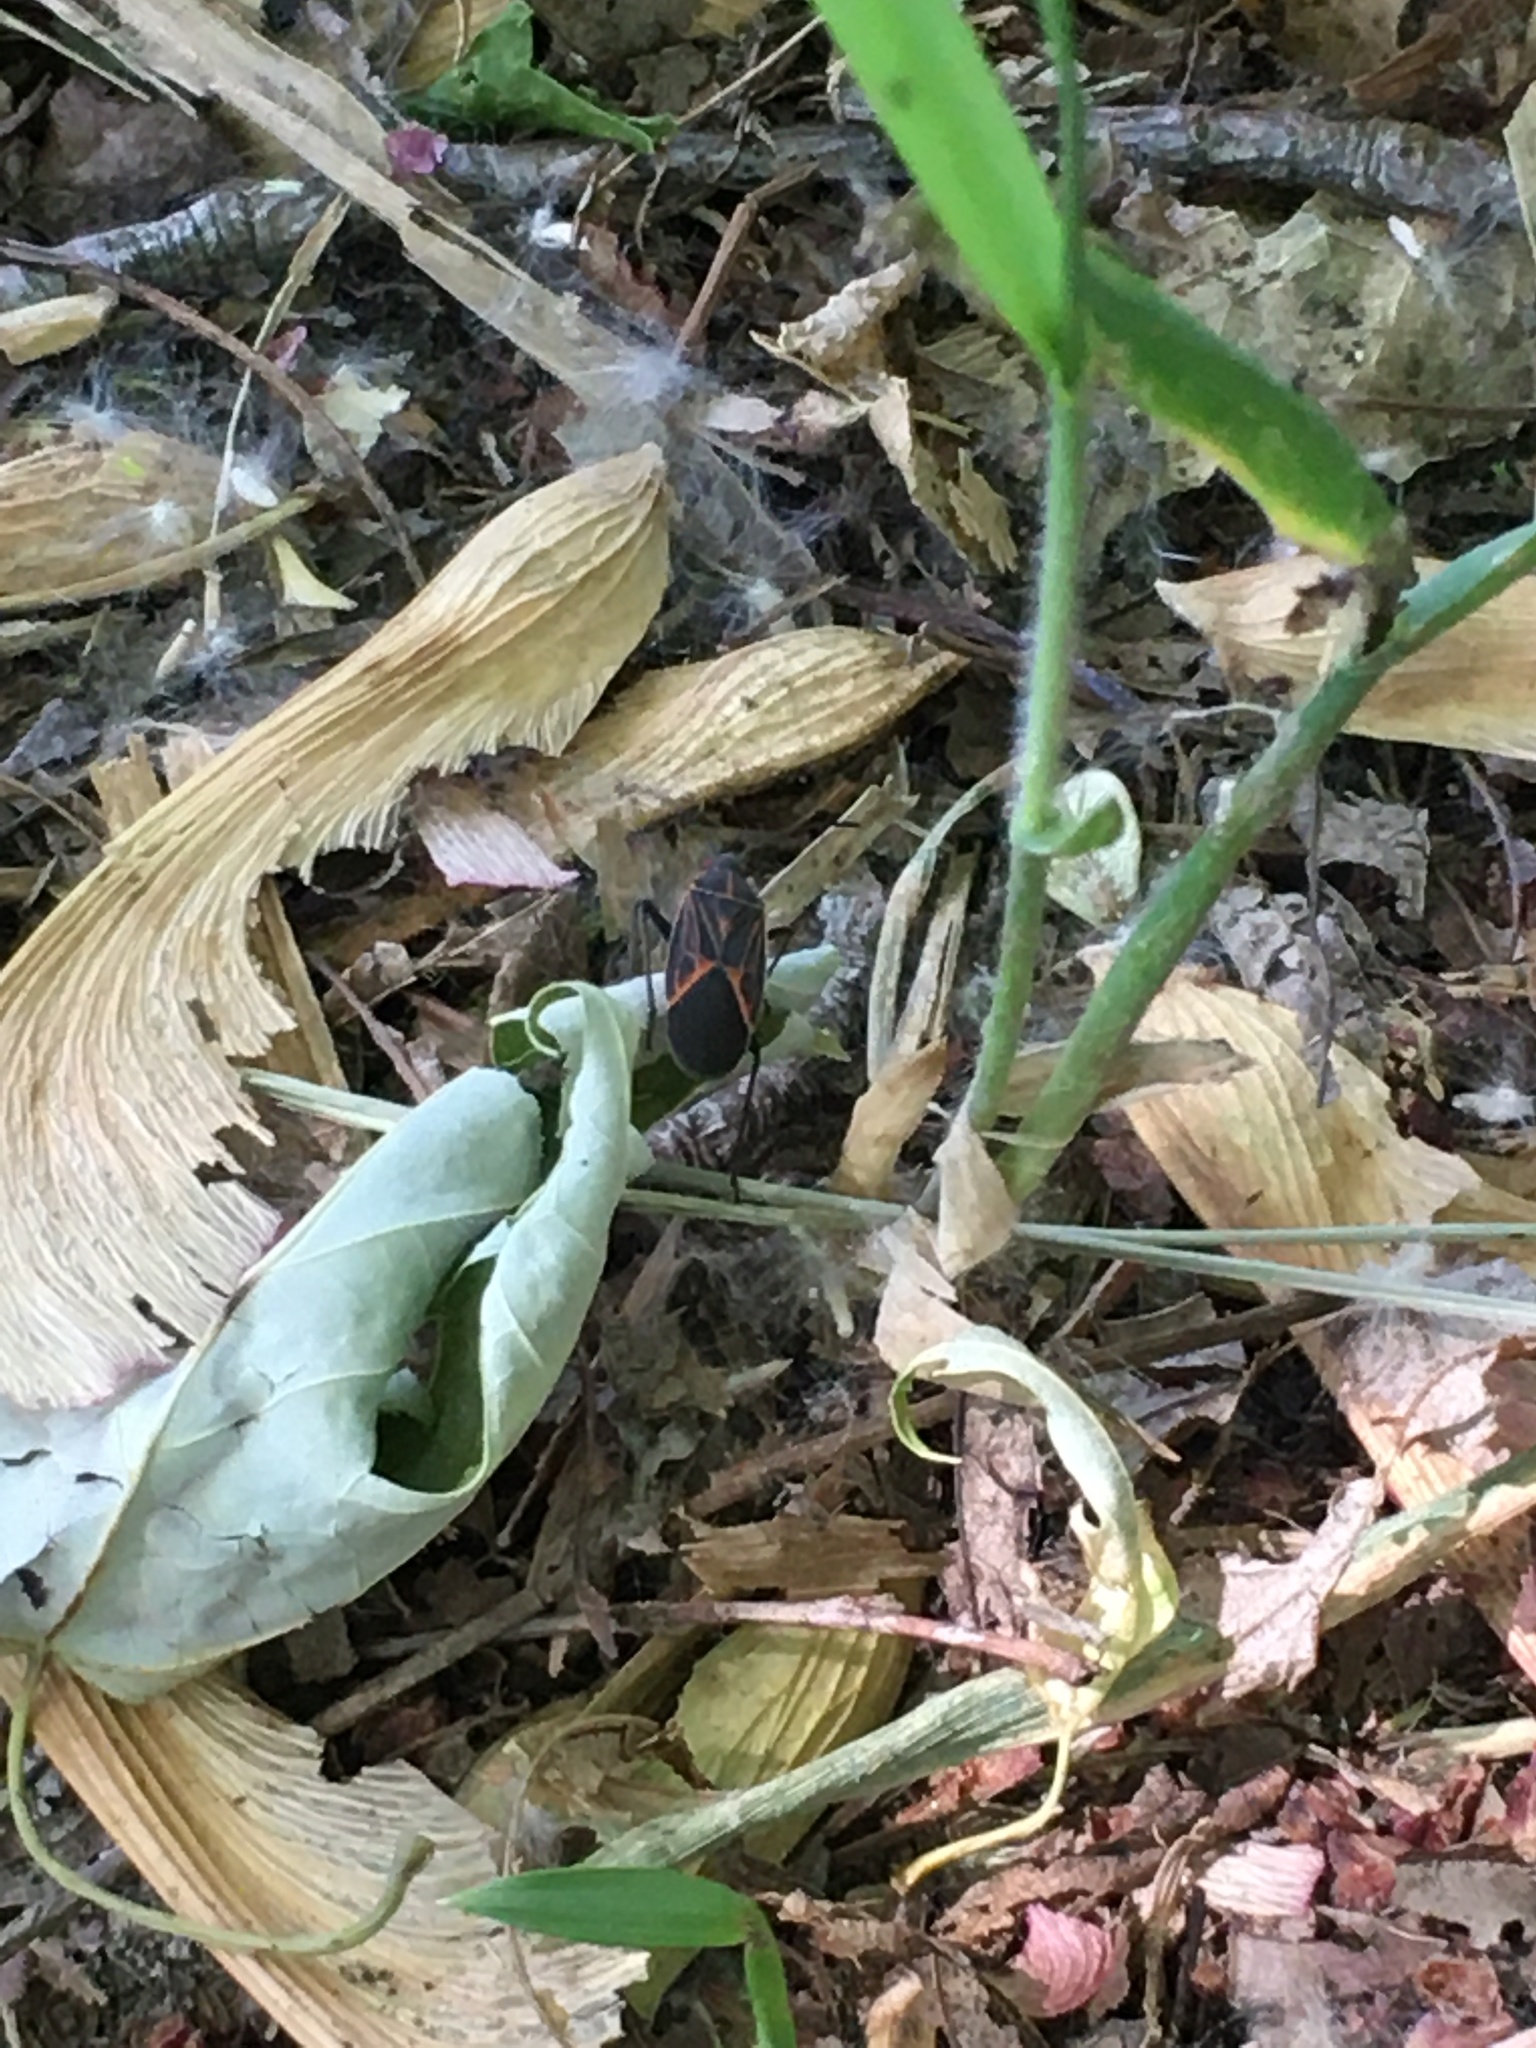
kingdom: Animalia
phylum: Arthropoda
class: Insecta
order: Hemiptera
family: Rhopalidae
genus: Boisea
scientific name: Boisea rubrolineata
